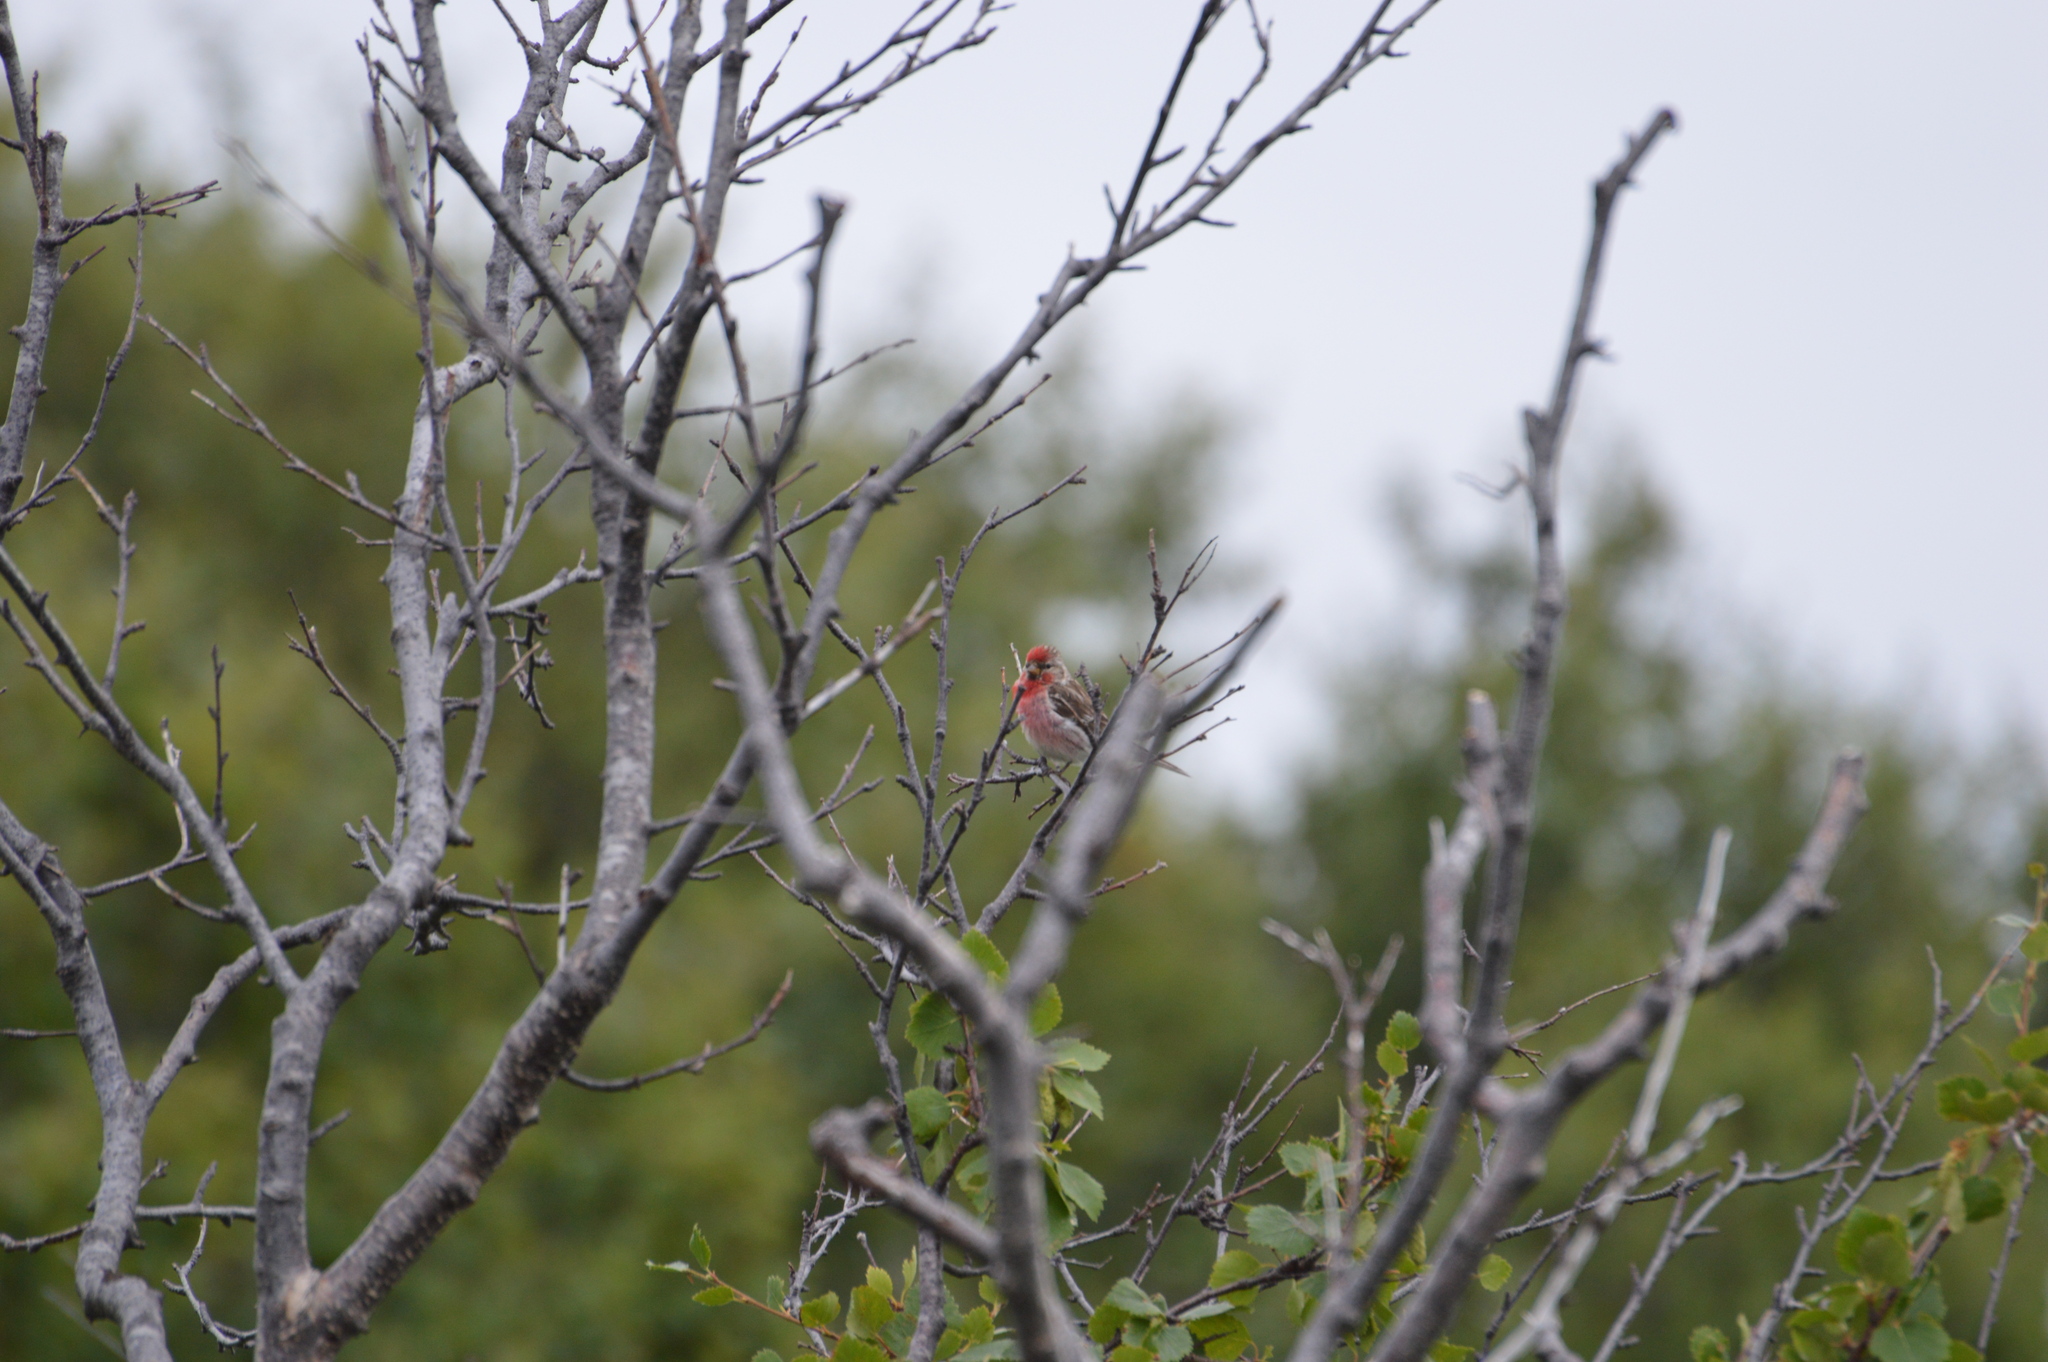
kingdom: Animalia
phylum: Chordata
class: Aves
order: Passeriformes
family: Fringillidae
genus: Acanthis
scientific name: Acanthis flammea
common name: Common redpoll
